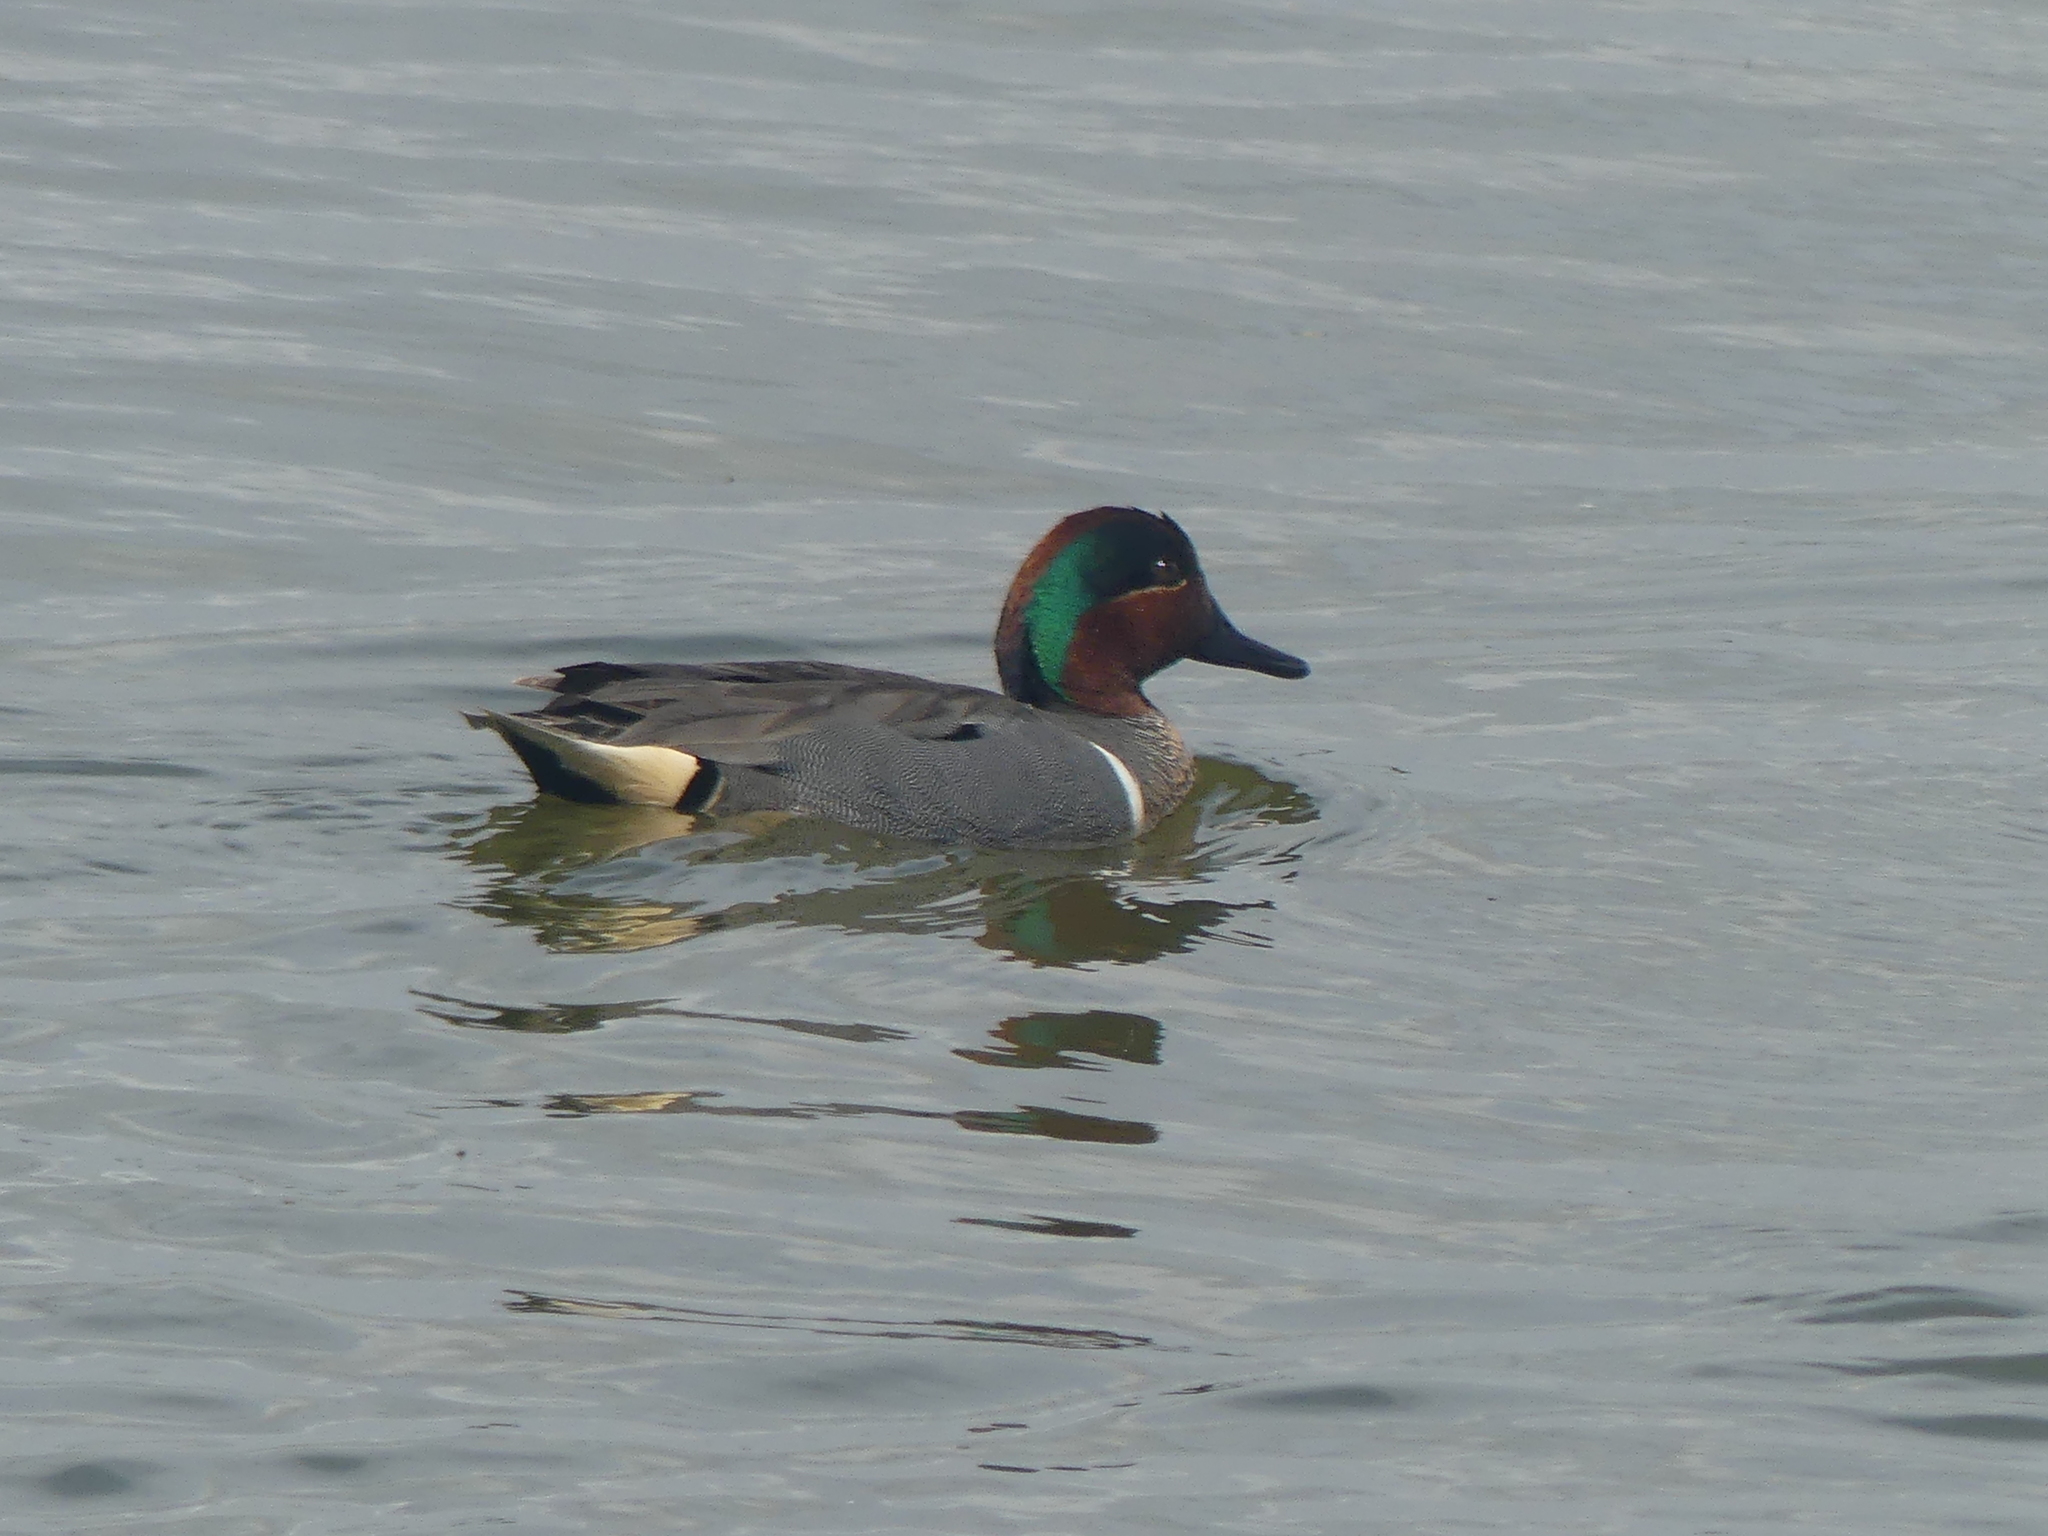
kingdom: Animalia
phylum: Chordata
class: Aves
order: Anseriformes
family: Anatidae
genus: Anas
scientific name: Anas crecca
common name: Eurasian teal
